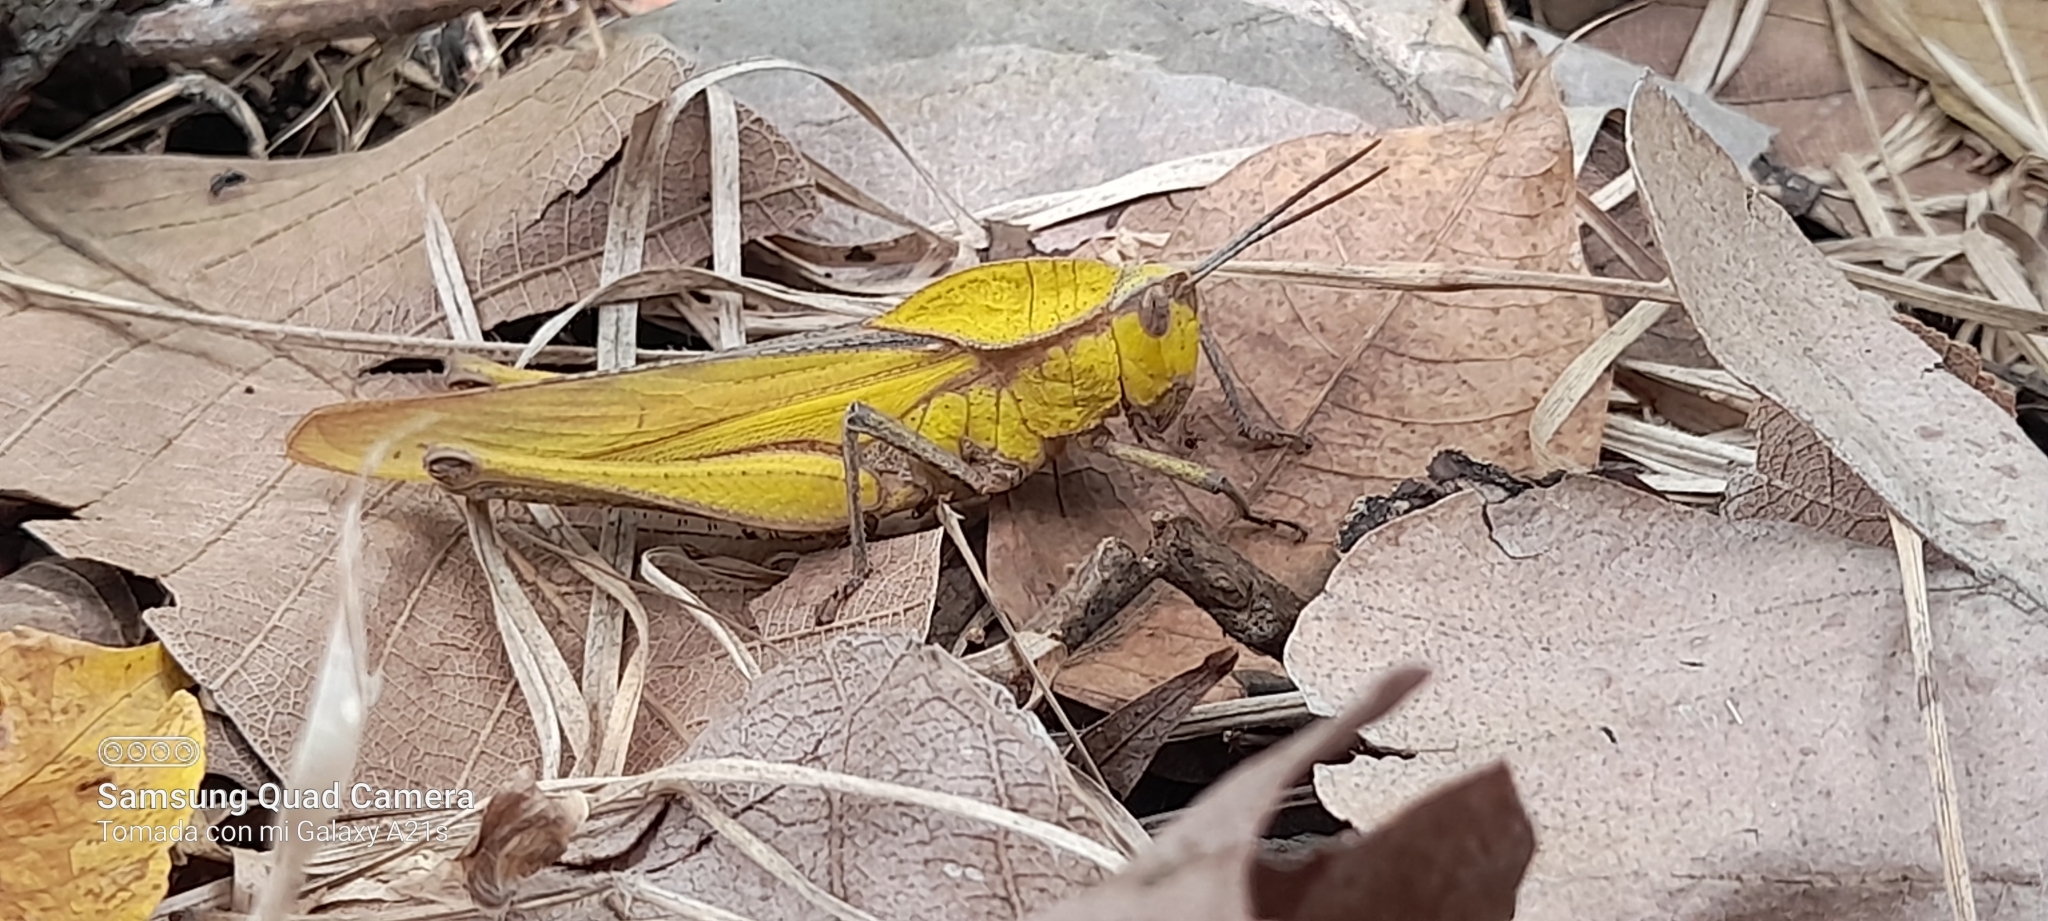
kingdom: Animalia
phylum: Arthropoda
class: Insecta
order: Orthoptera
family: Romaleidae
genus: Xyleus
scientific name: Xyleus discoideus
